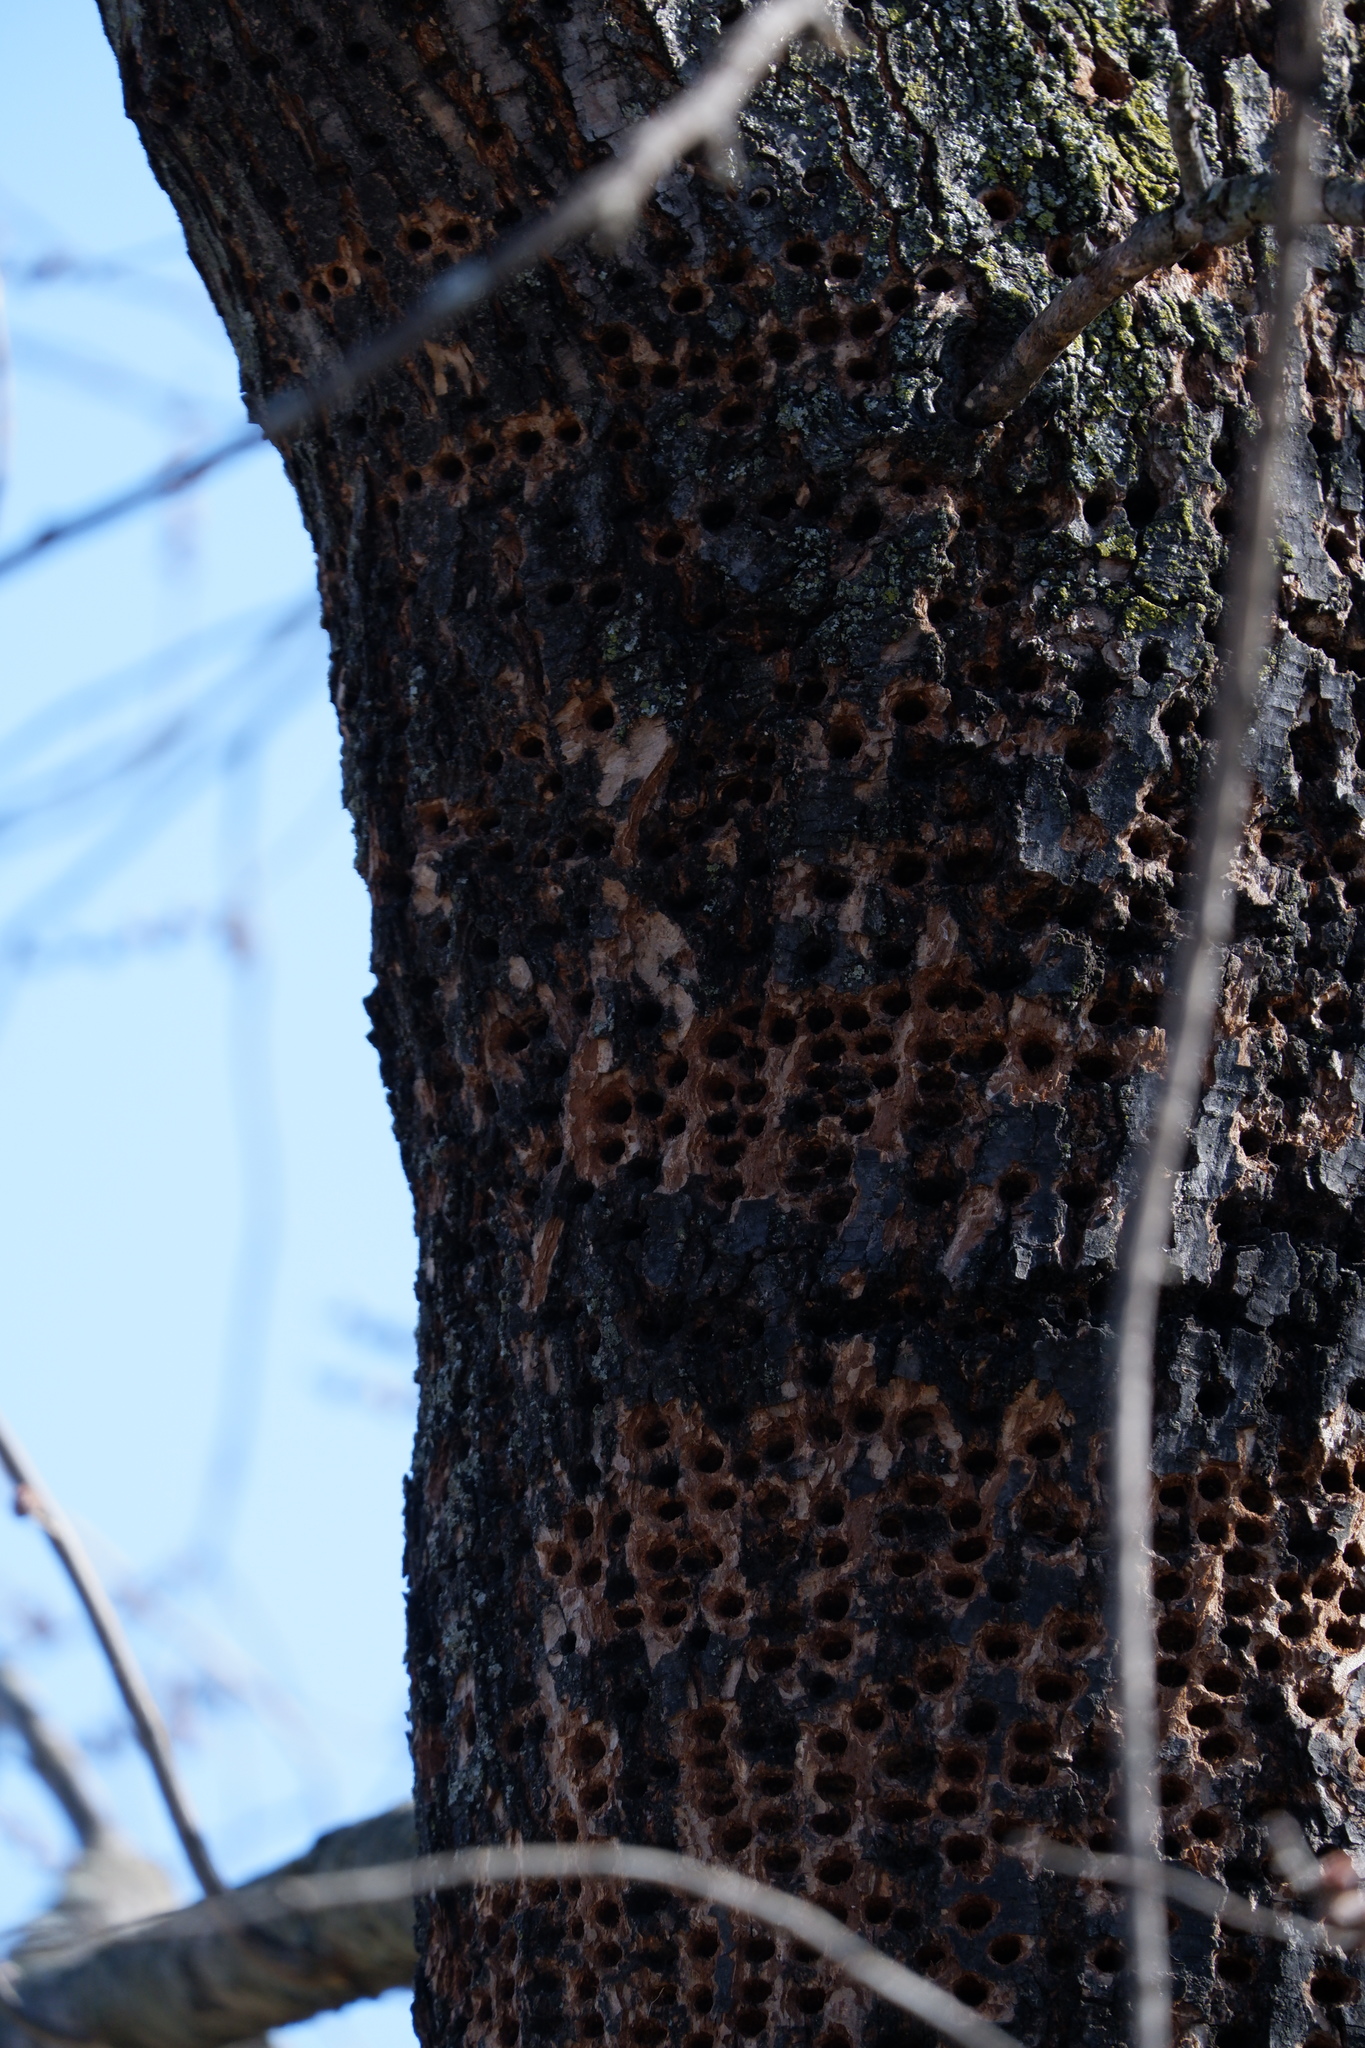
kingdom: Animalia
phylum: Chordata
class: Aves
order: Piciformes
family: Picidae
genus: Sphyrapicus
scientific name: Sphyrapicus varius
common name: Yellow-bellied sapsucker
